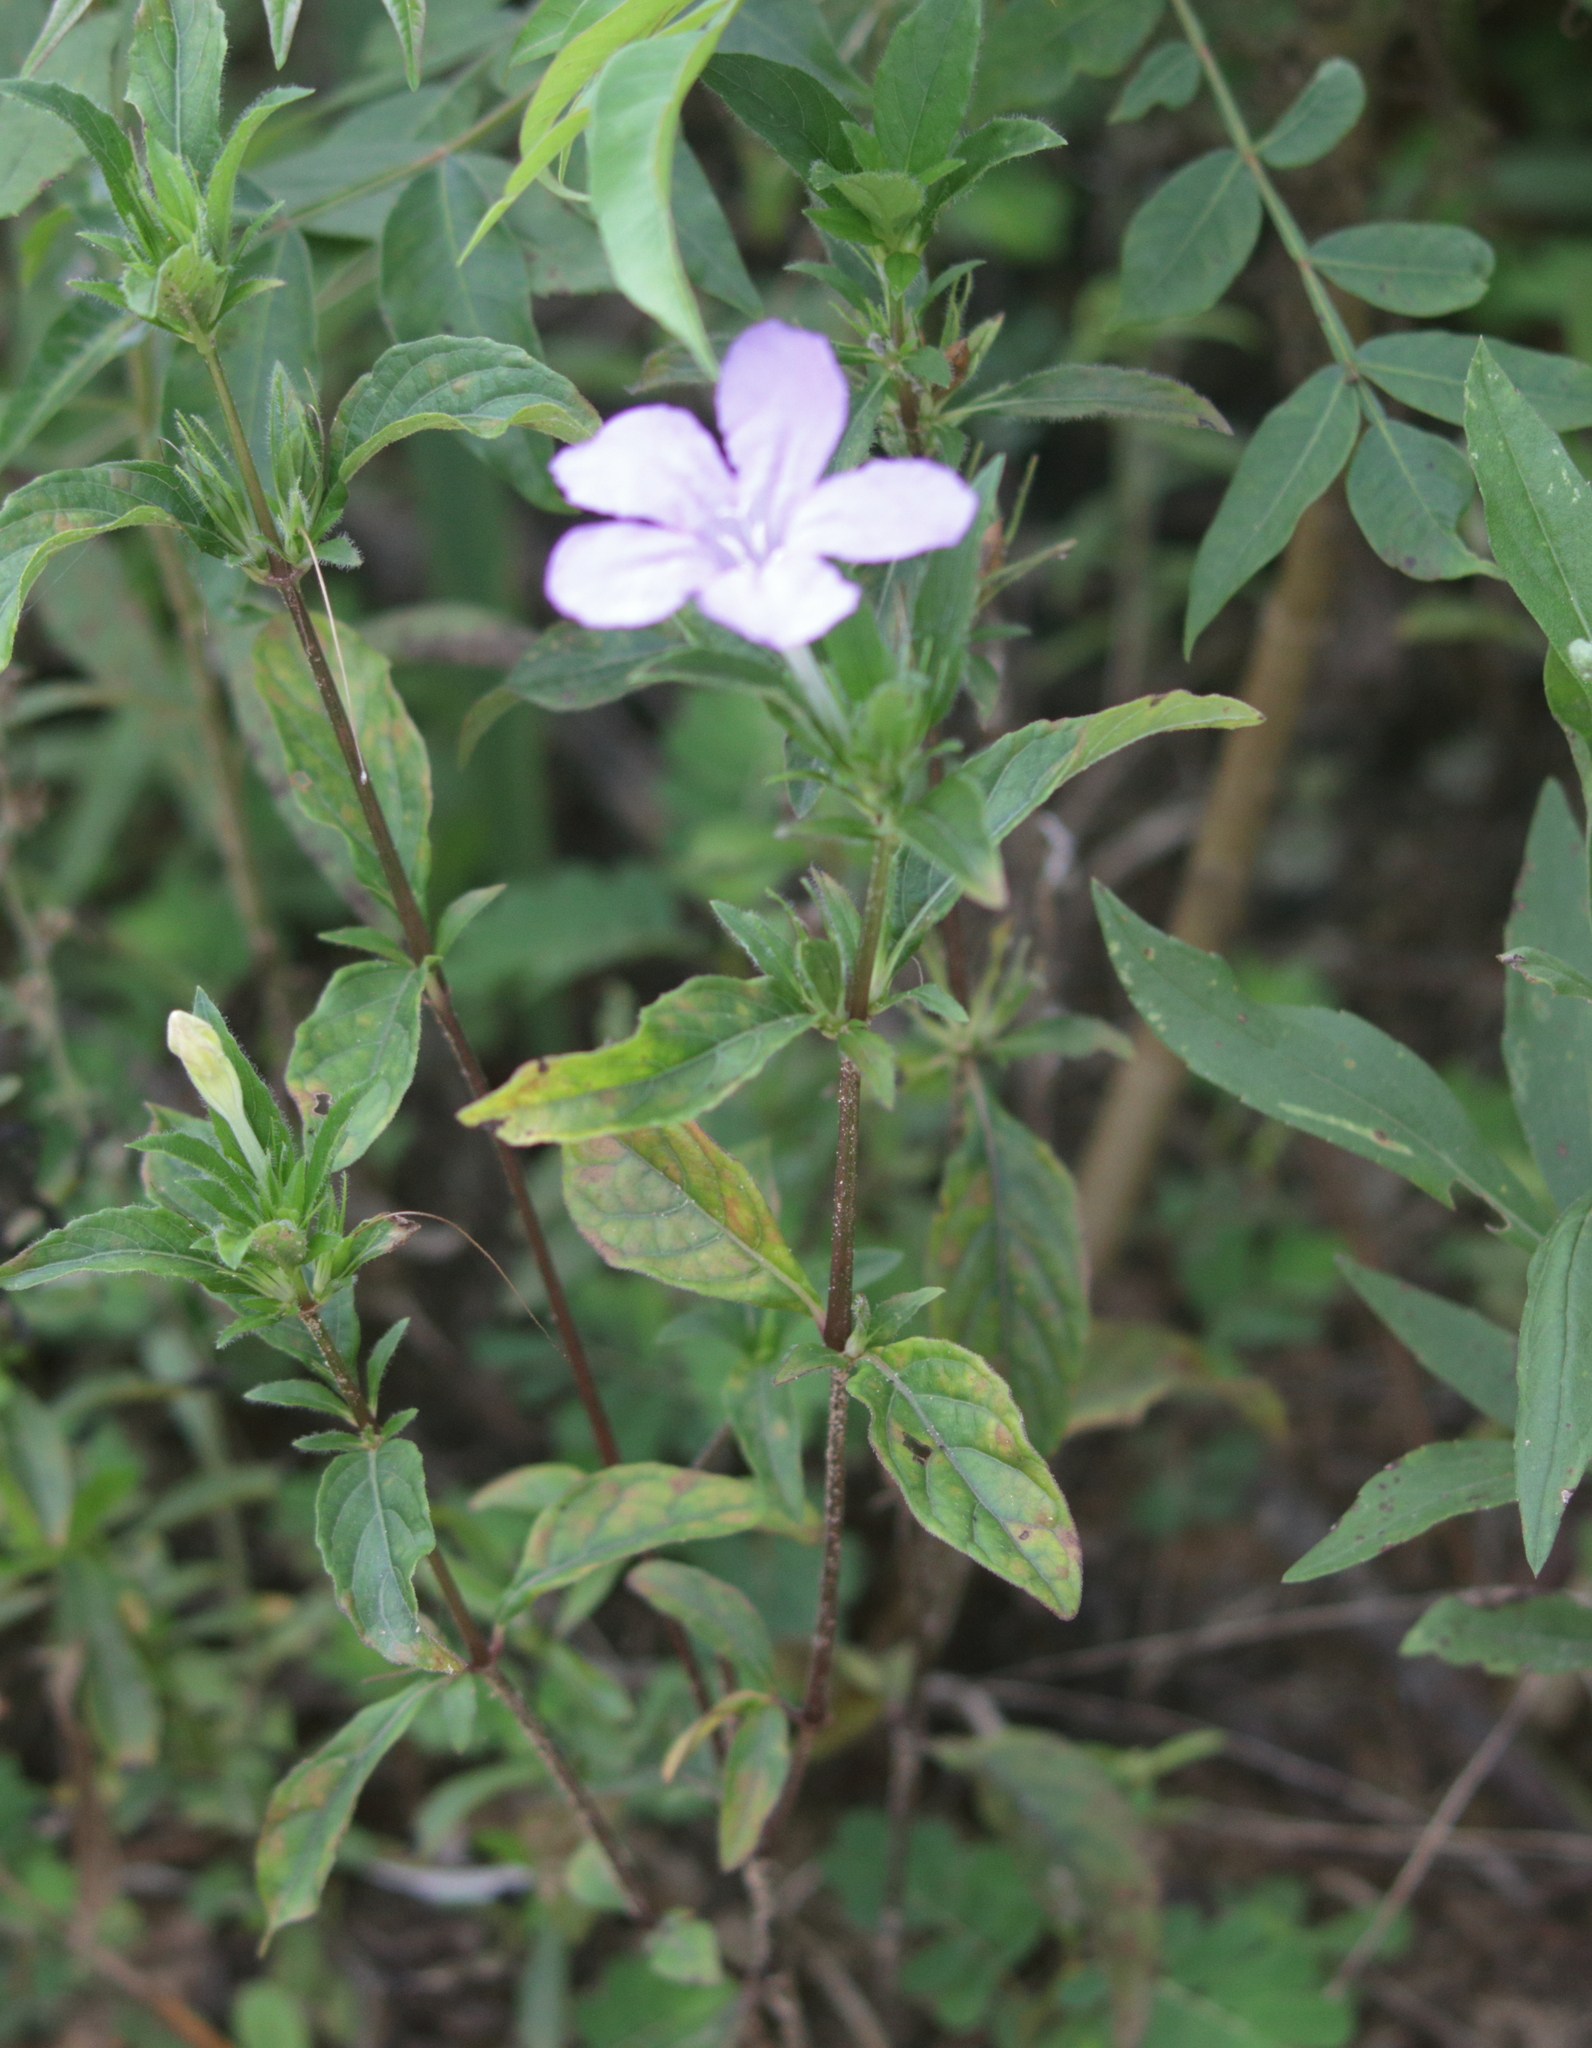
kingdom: Plantae
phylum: Tracheophyta
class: Magnoliopsida
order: Lamiales
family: Acanthaceae
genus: Ruellia
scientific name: Ruellia caroliniensis
